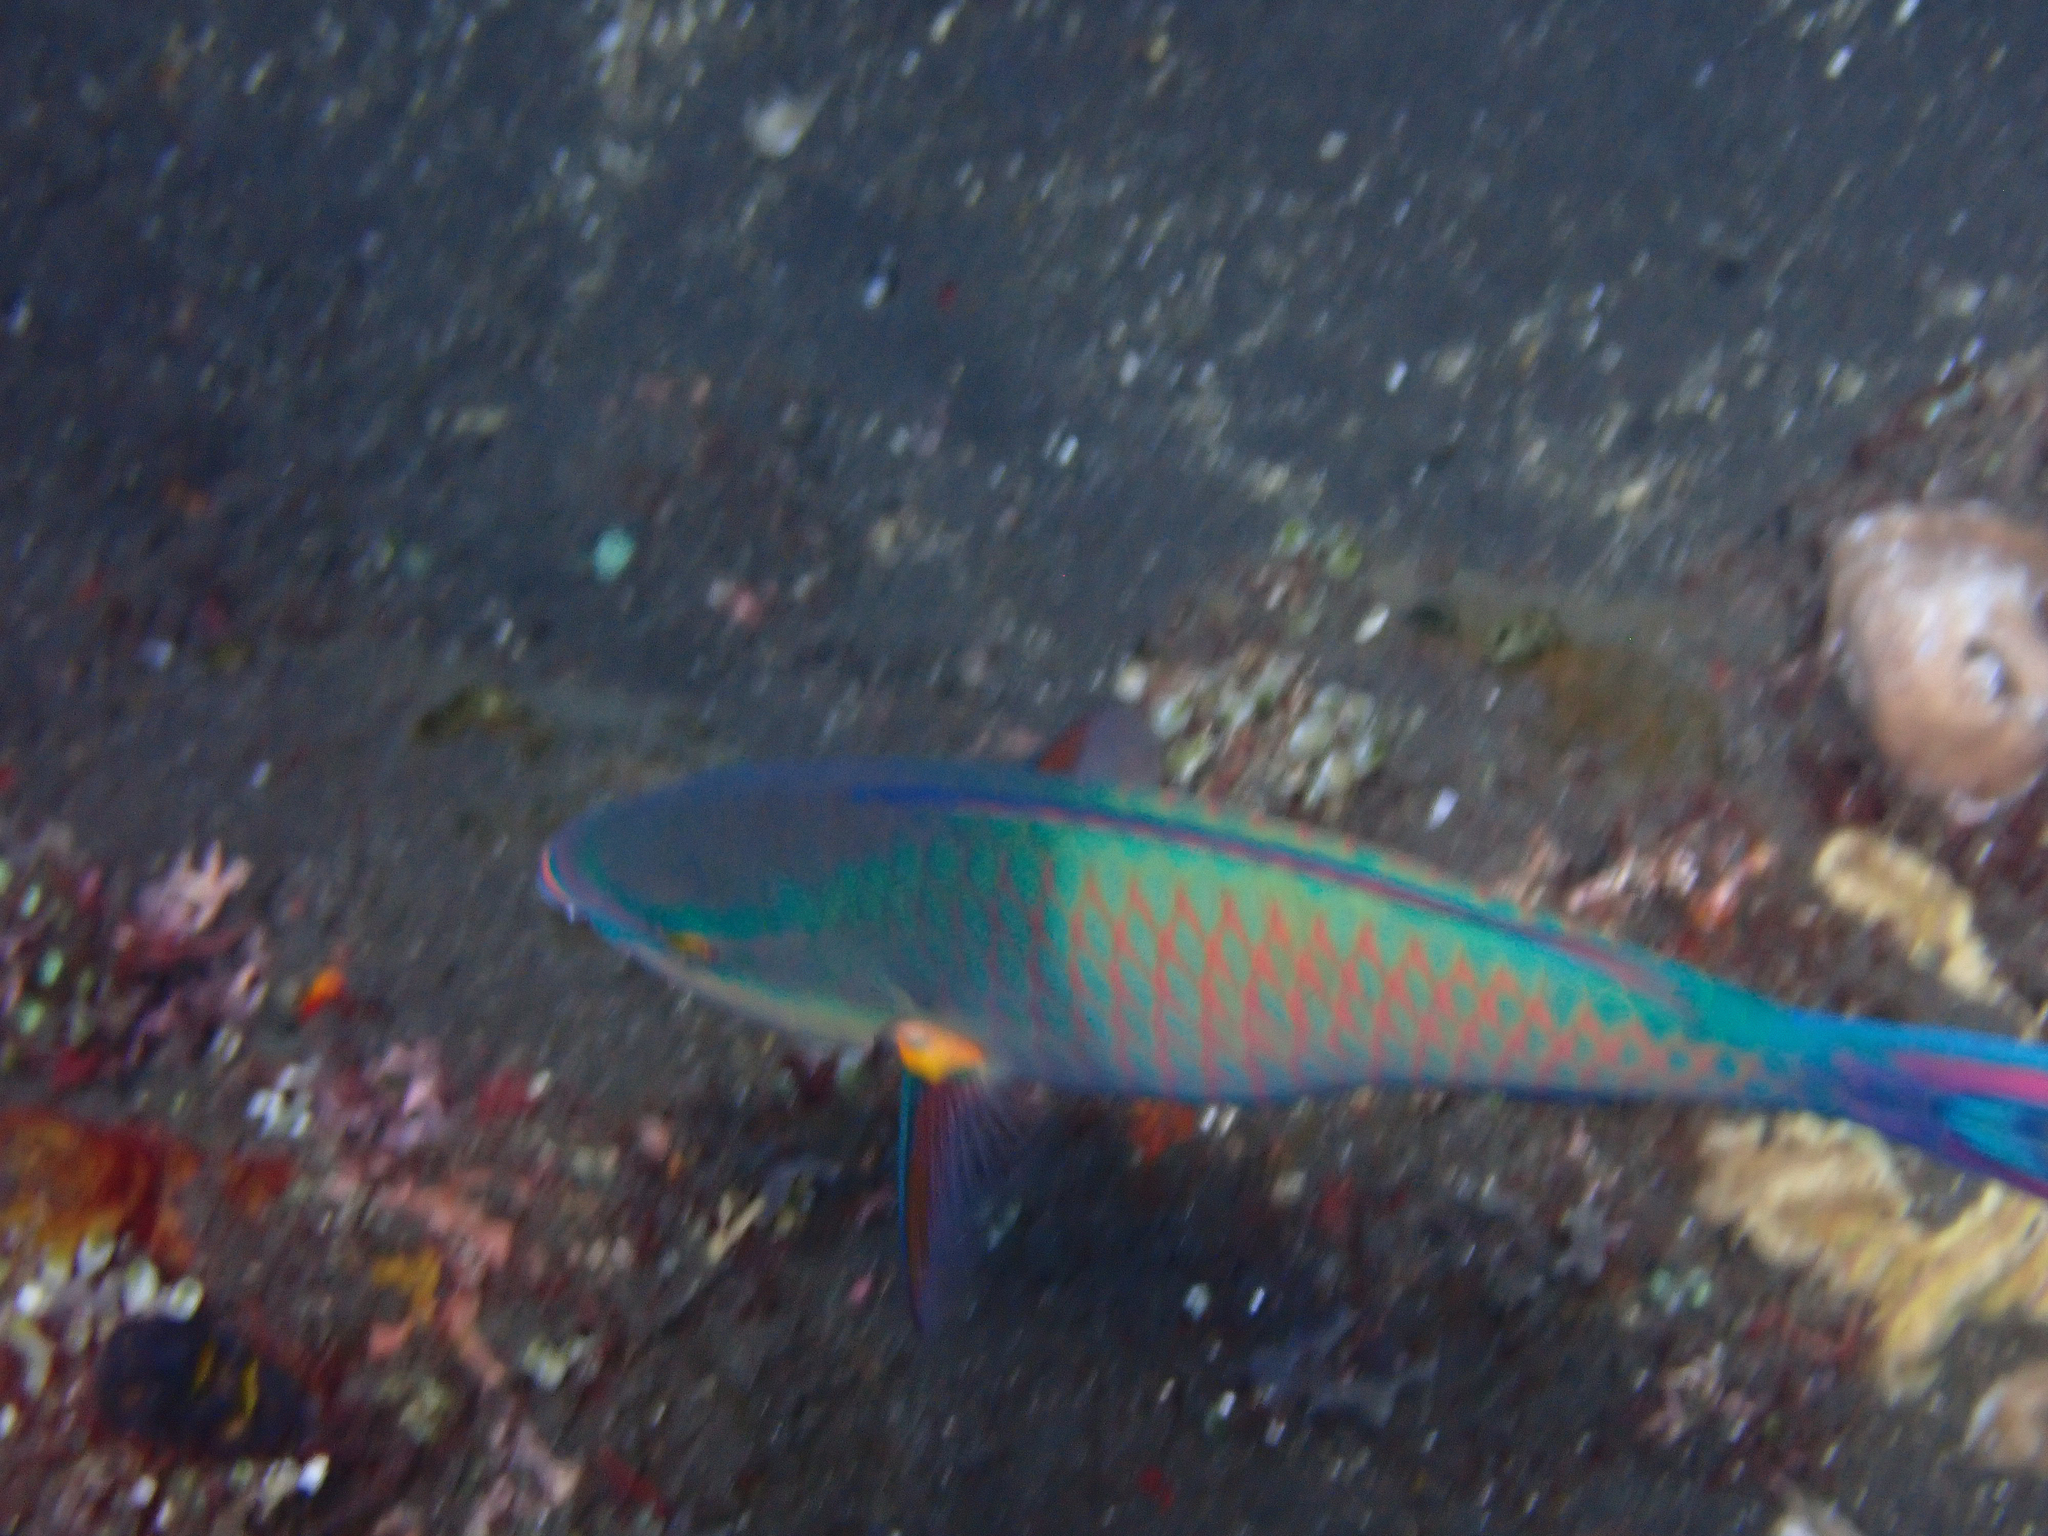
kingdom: Animalia
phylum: Chordata
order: Perciformes
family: Scaridae
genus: Scarus
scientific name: Scarus tricolor
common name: Tricolour parrotfish
